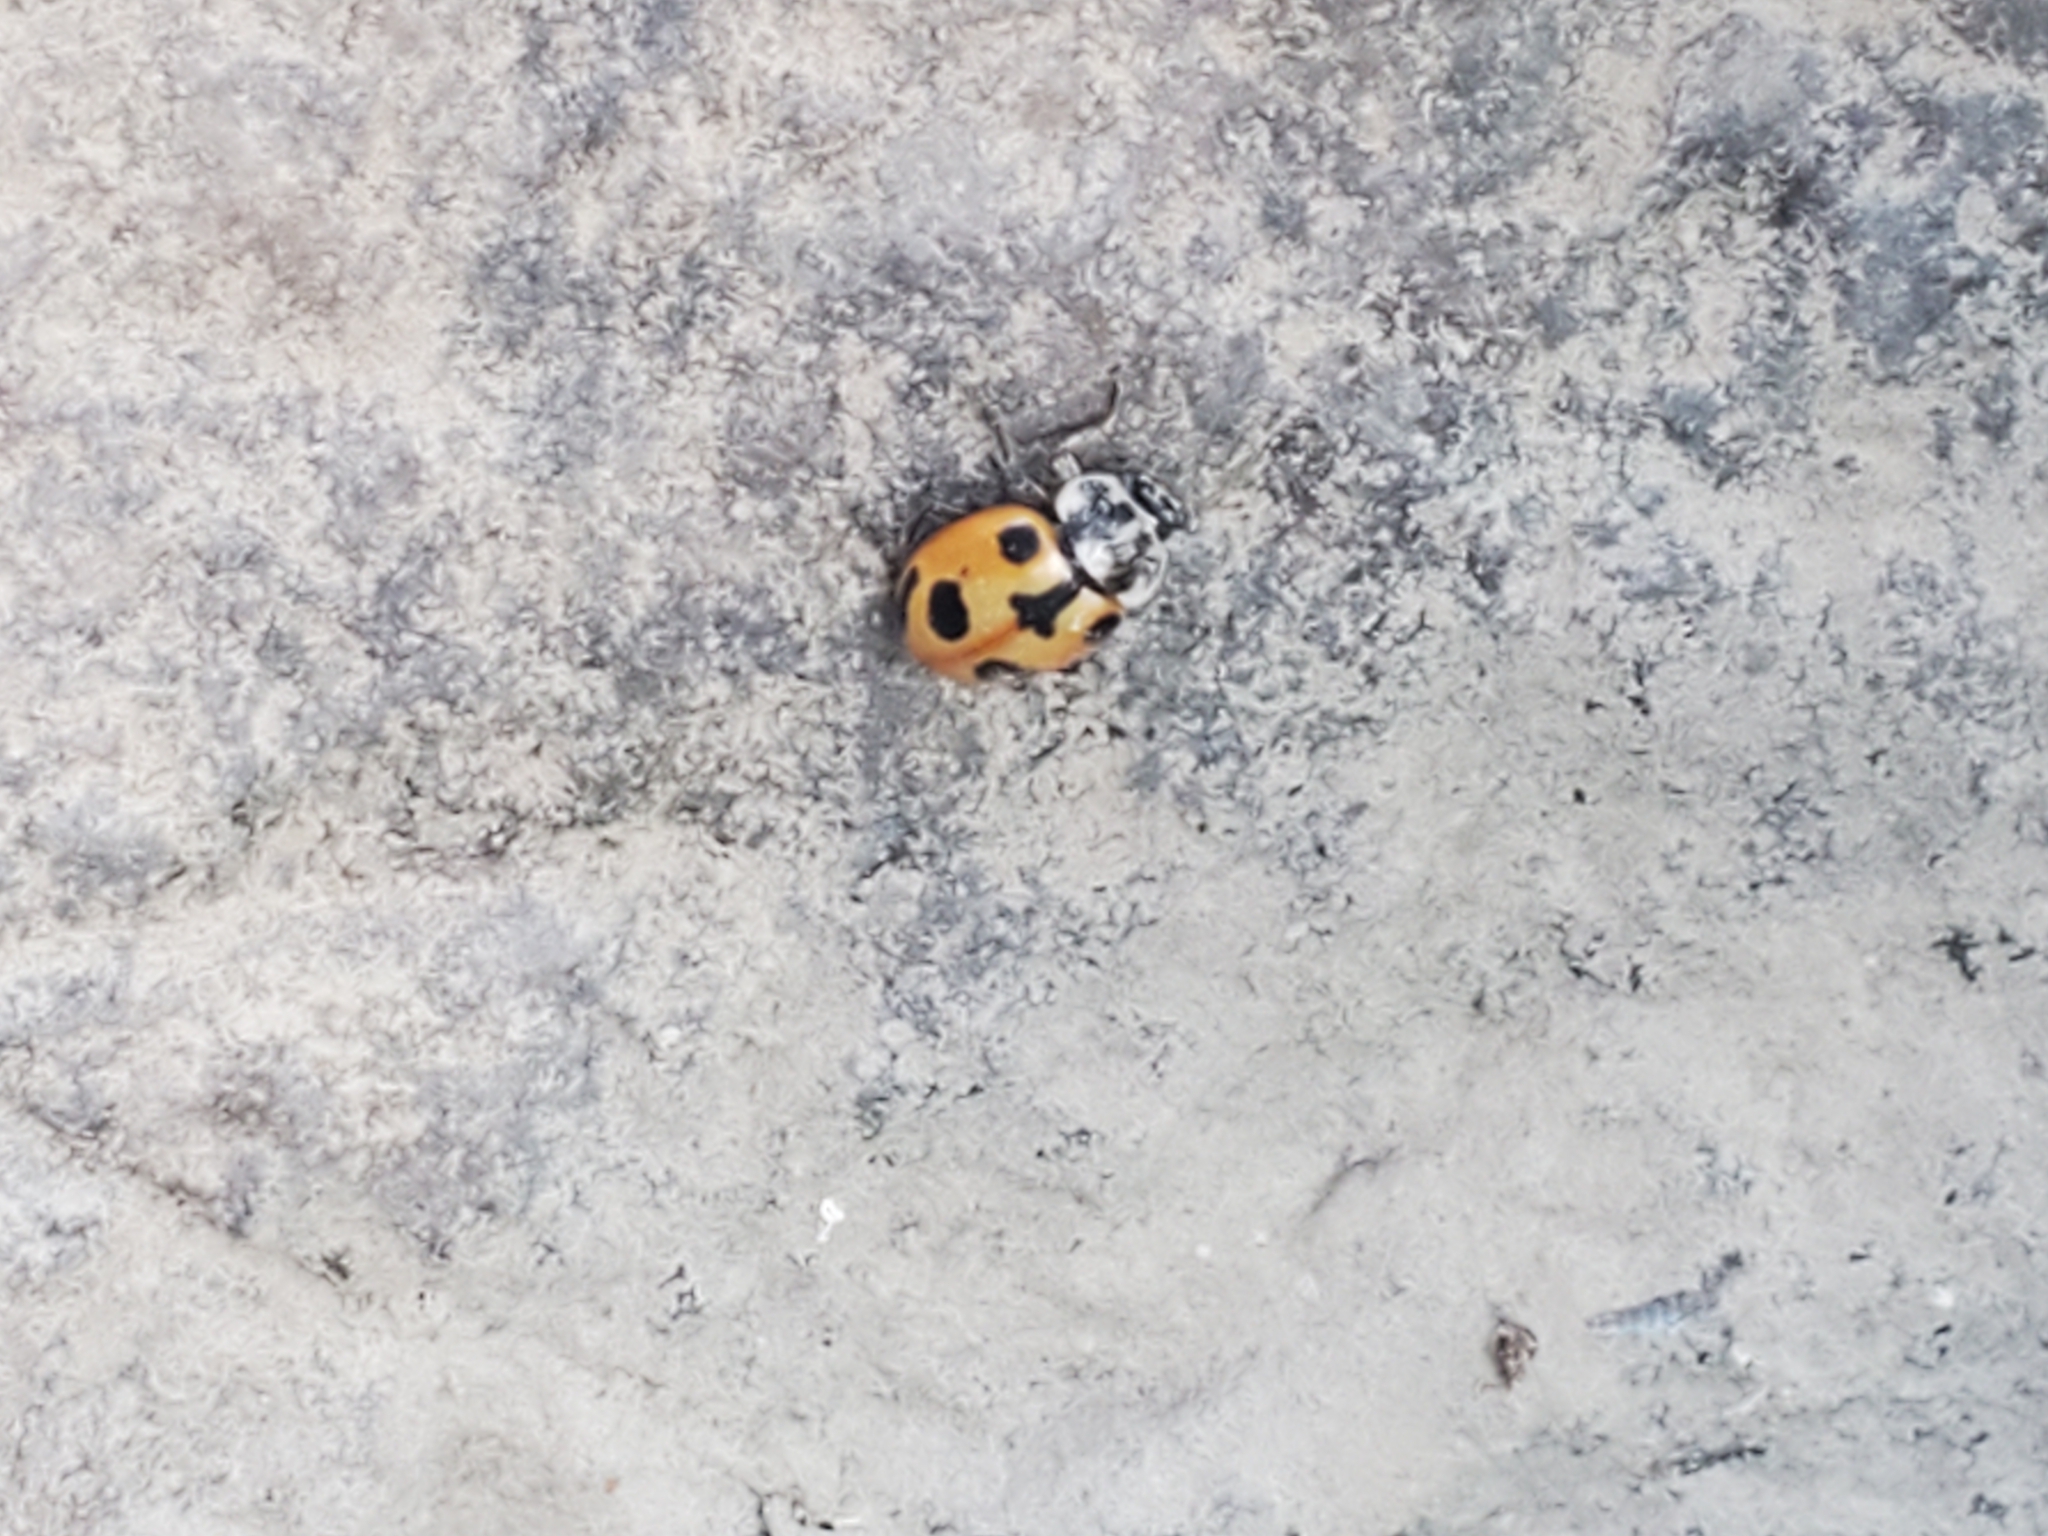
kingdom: Animalia
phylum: Arthropoda
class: Insecta
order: Coleoptera
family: Coccinellidae
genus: Hippodamia
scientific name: Hippodamia parenthesis
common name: Parenthesis lady beetle
